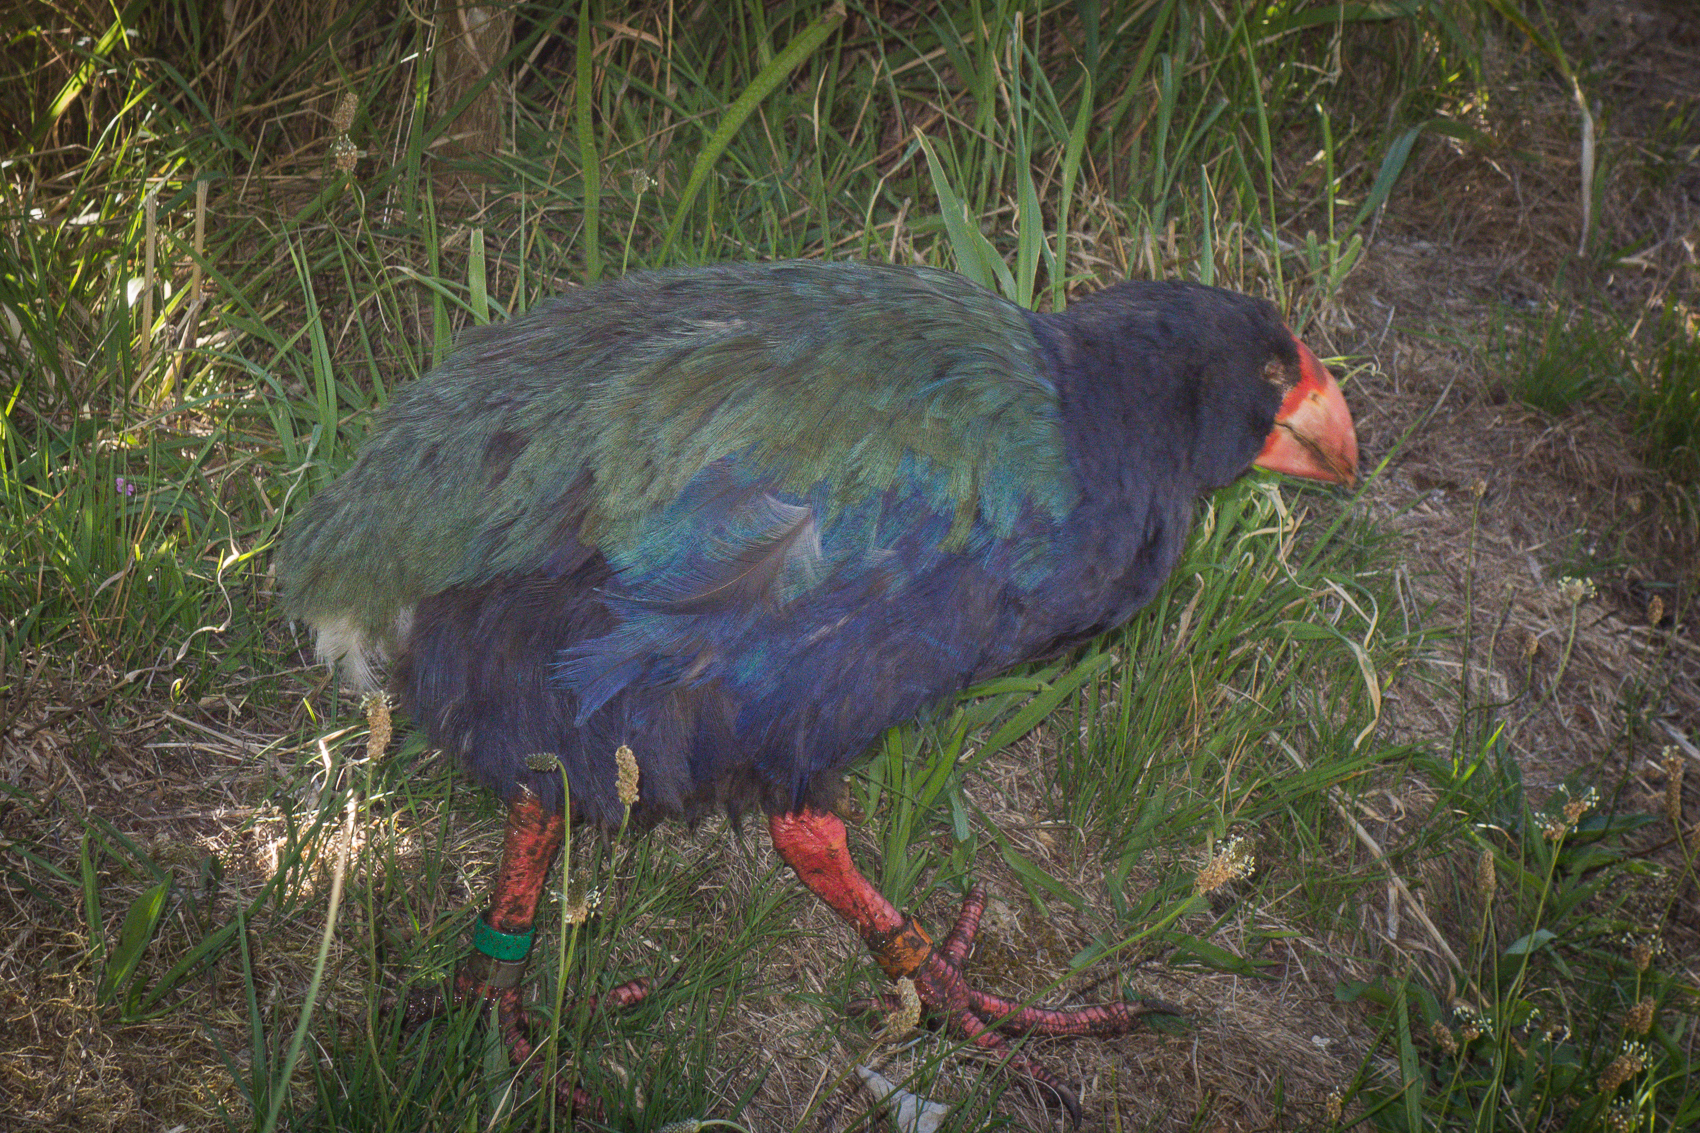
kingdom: Animalia
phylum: Chordata
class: Aves
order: Gruiformes
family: Rallidae
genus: Porphyrio
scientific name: Porphyrio hochstetteri
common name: South island takahe
